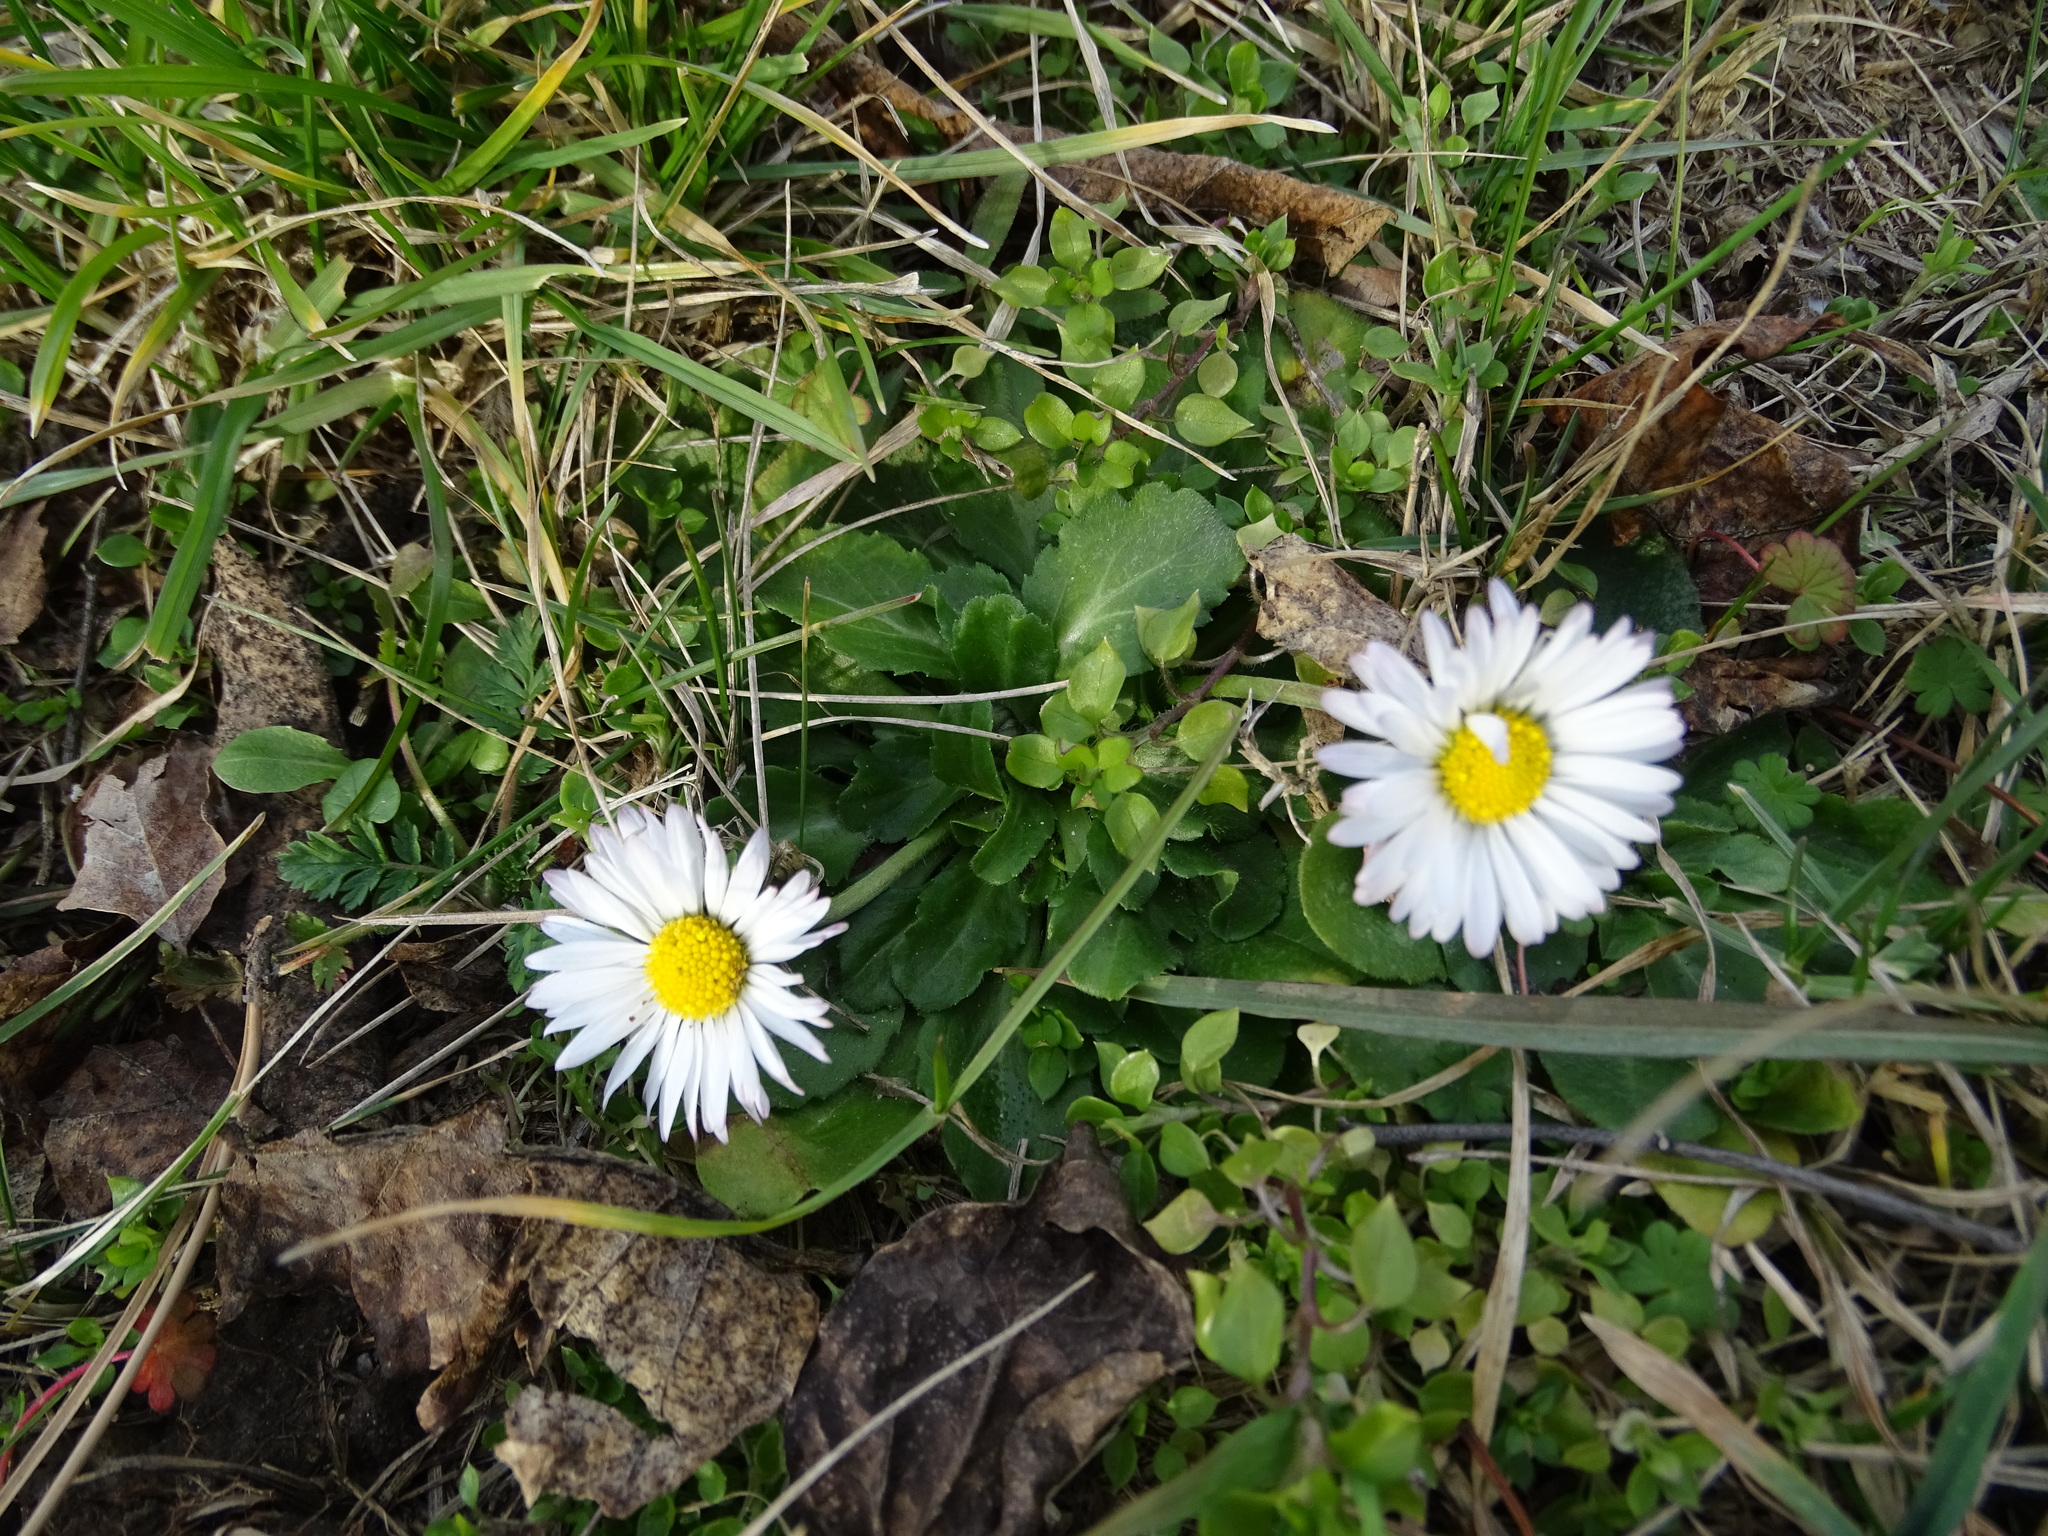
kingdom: Plantae
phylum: Tracheophyta
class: Magnoliopsida
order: Asterales
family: Asteraceae
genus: Bellis
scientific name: Bellis perennis
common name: Lawndaisy
